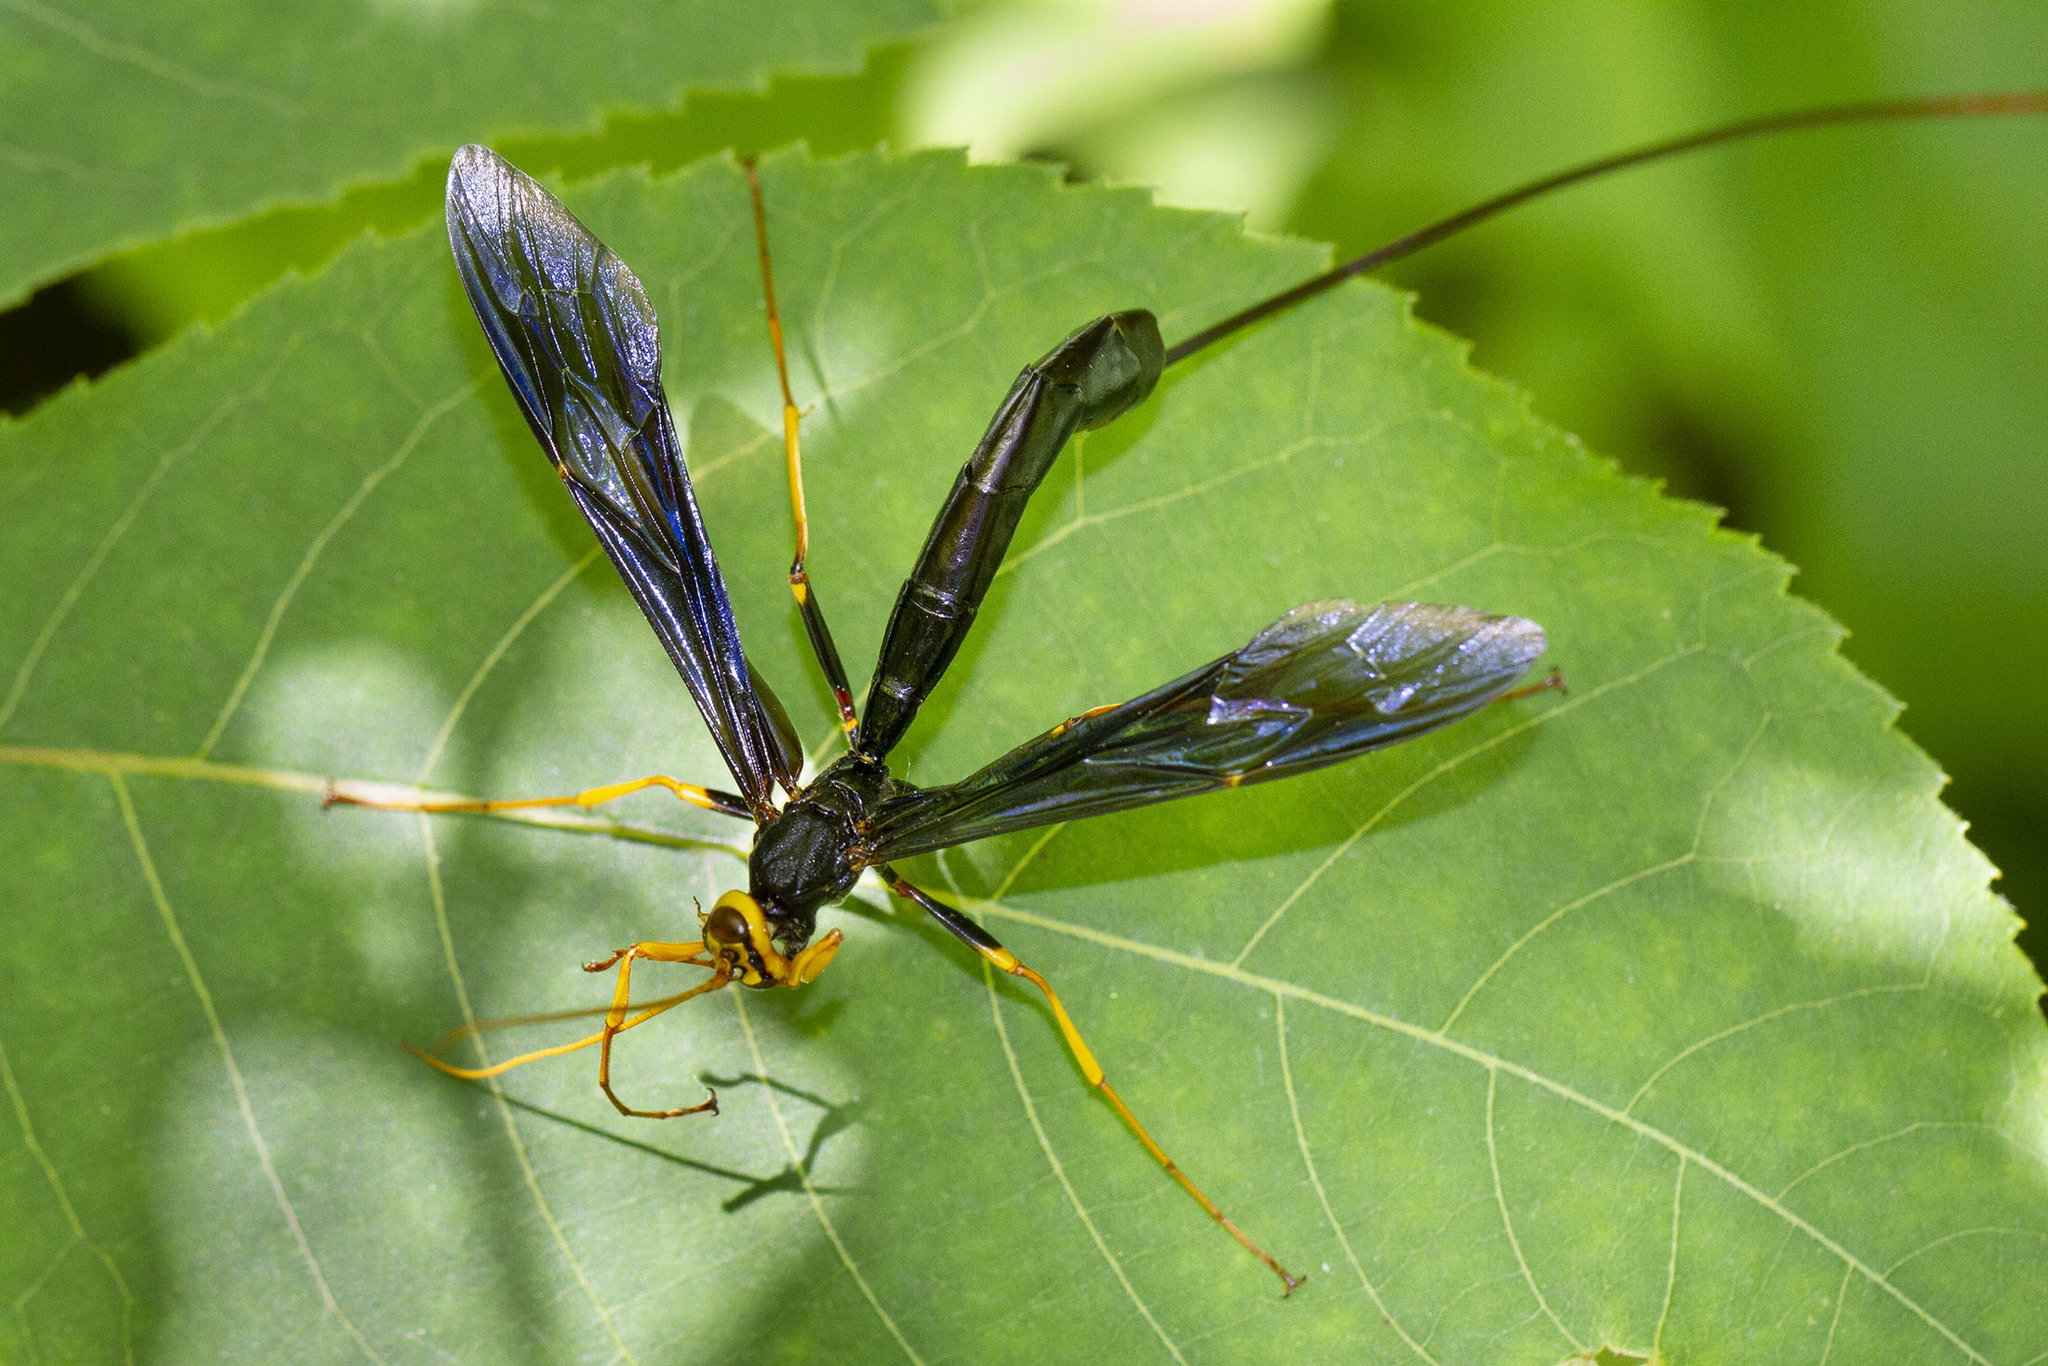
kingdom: Animalia
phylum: Arthropoda
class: Insecta
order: Hymenoptera
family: Ichneumonidae
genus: Megarhyssa
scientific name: Megarhyssa atrata
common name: Black giant ichneumonid wasp
